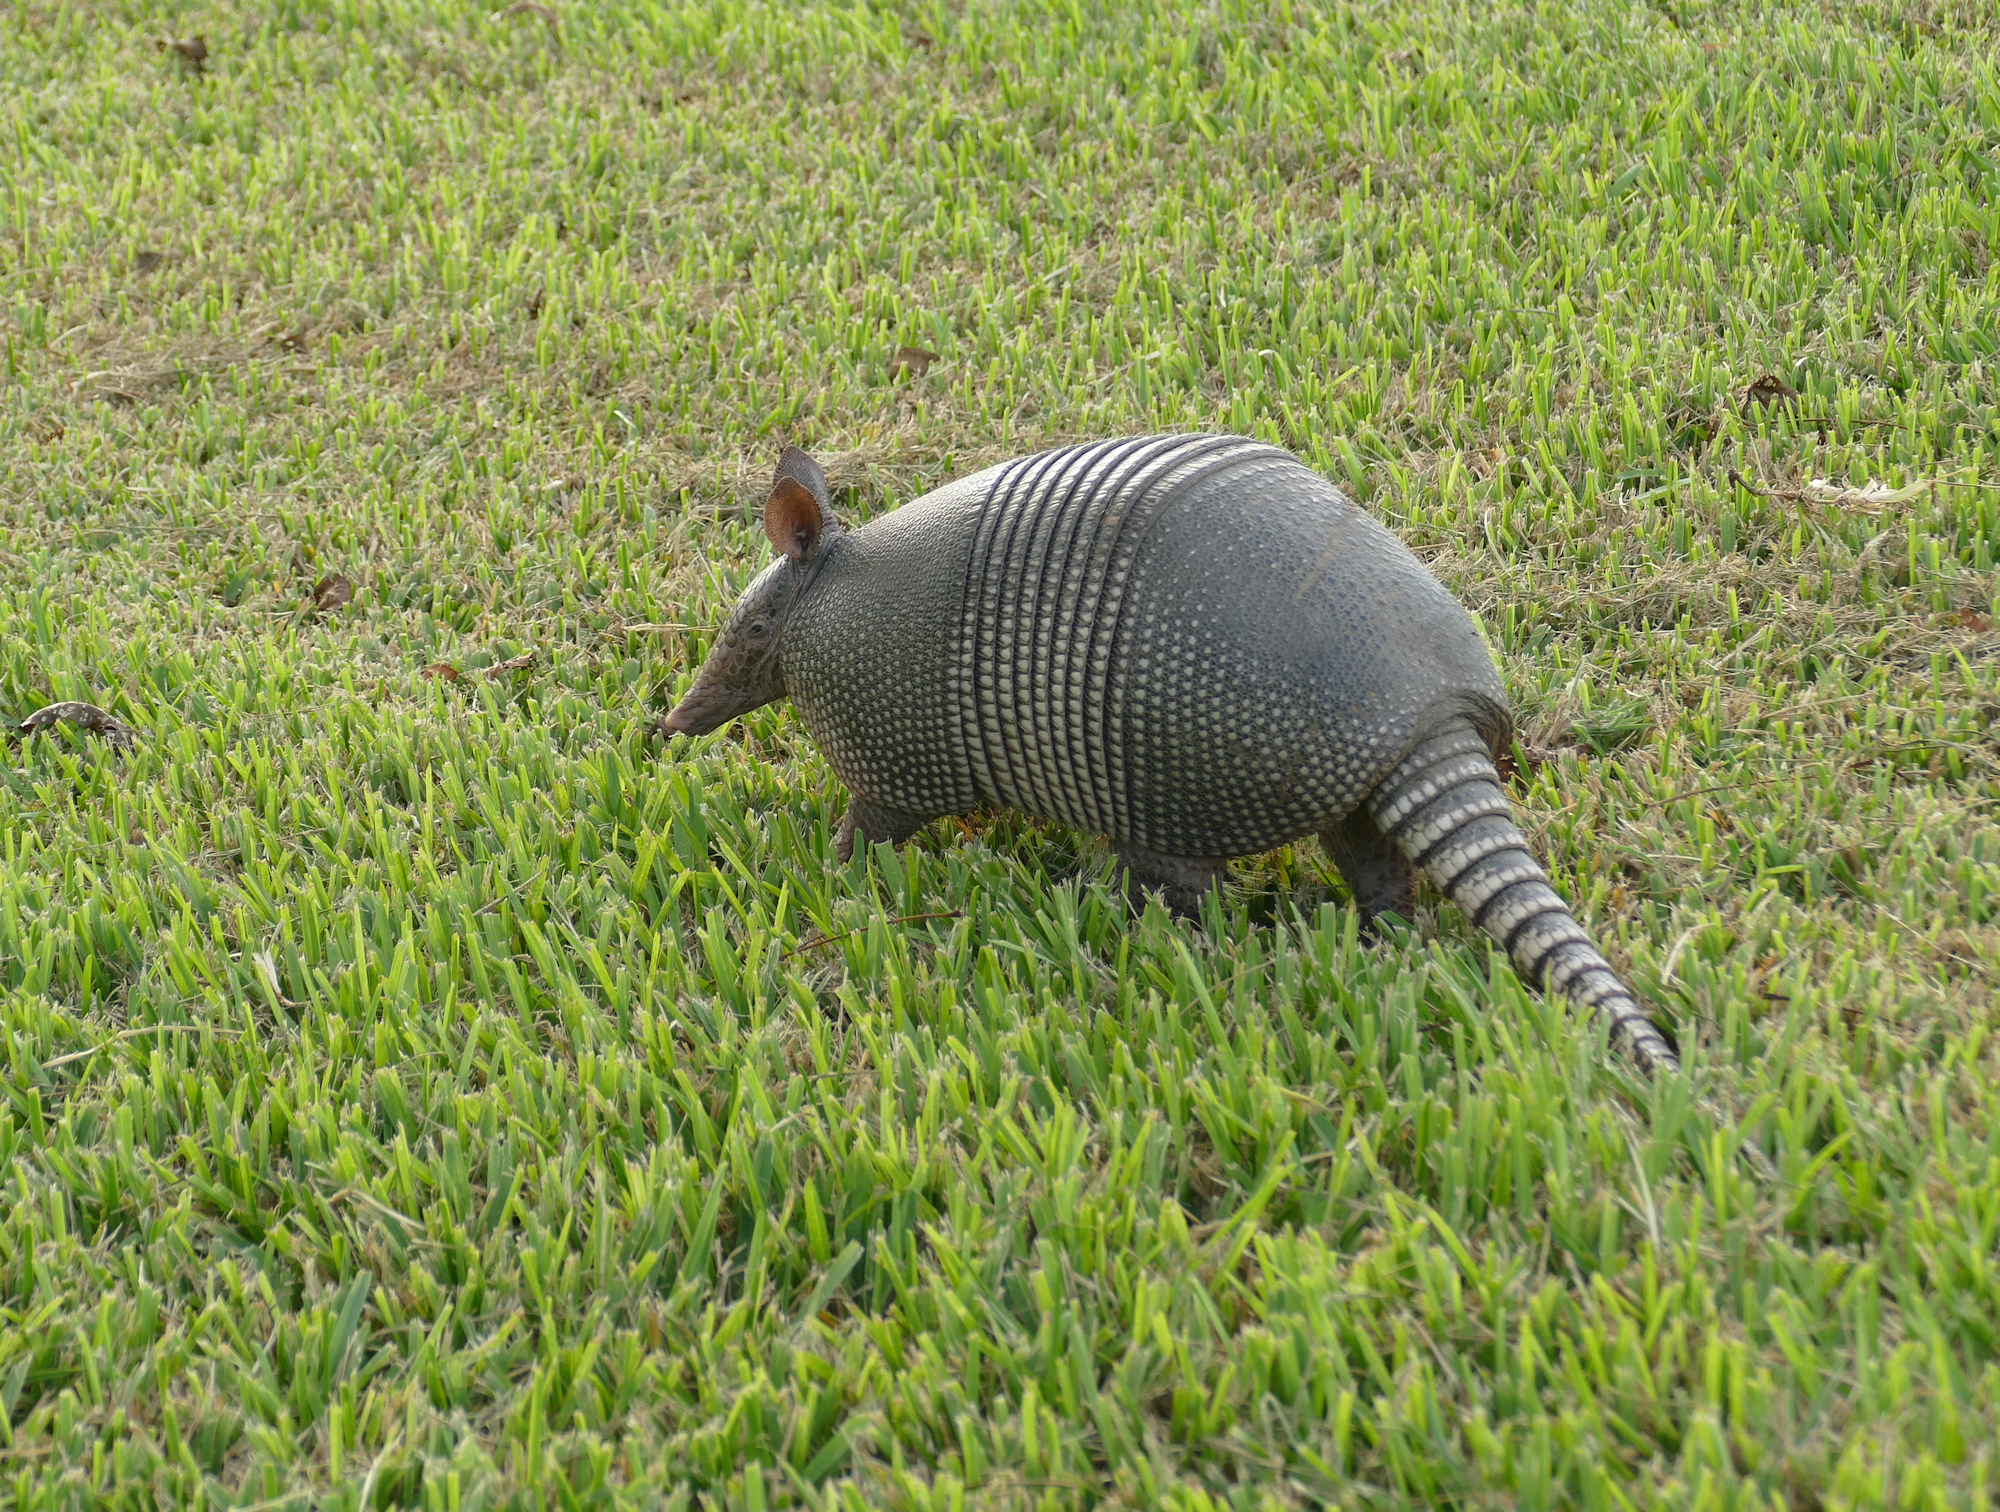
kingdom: Animalia
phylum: Chordata
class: Mammalia
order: Cingulata
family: Dasypodidae
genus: Dasypus
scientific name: Dasypus novemcinctus
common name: Nine-banded armadillo
